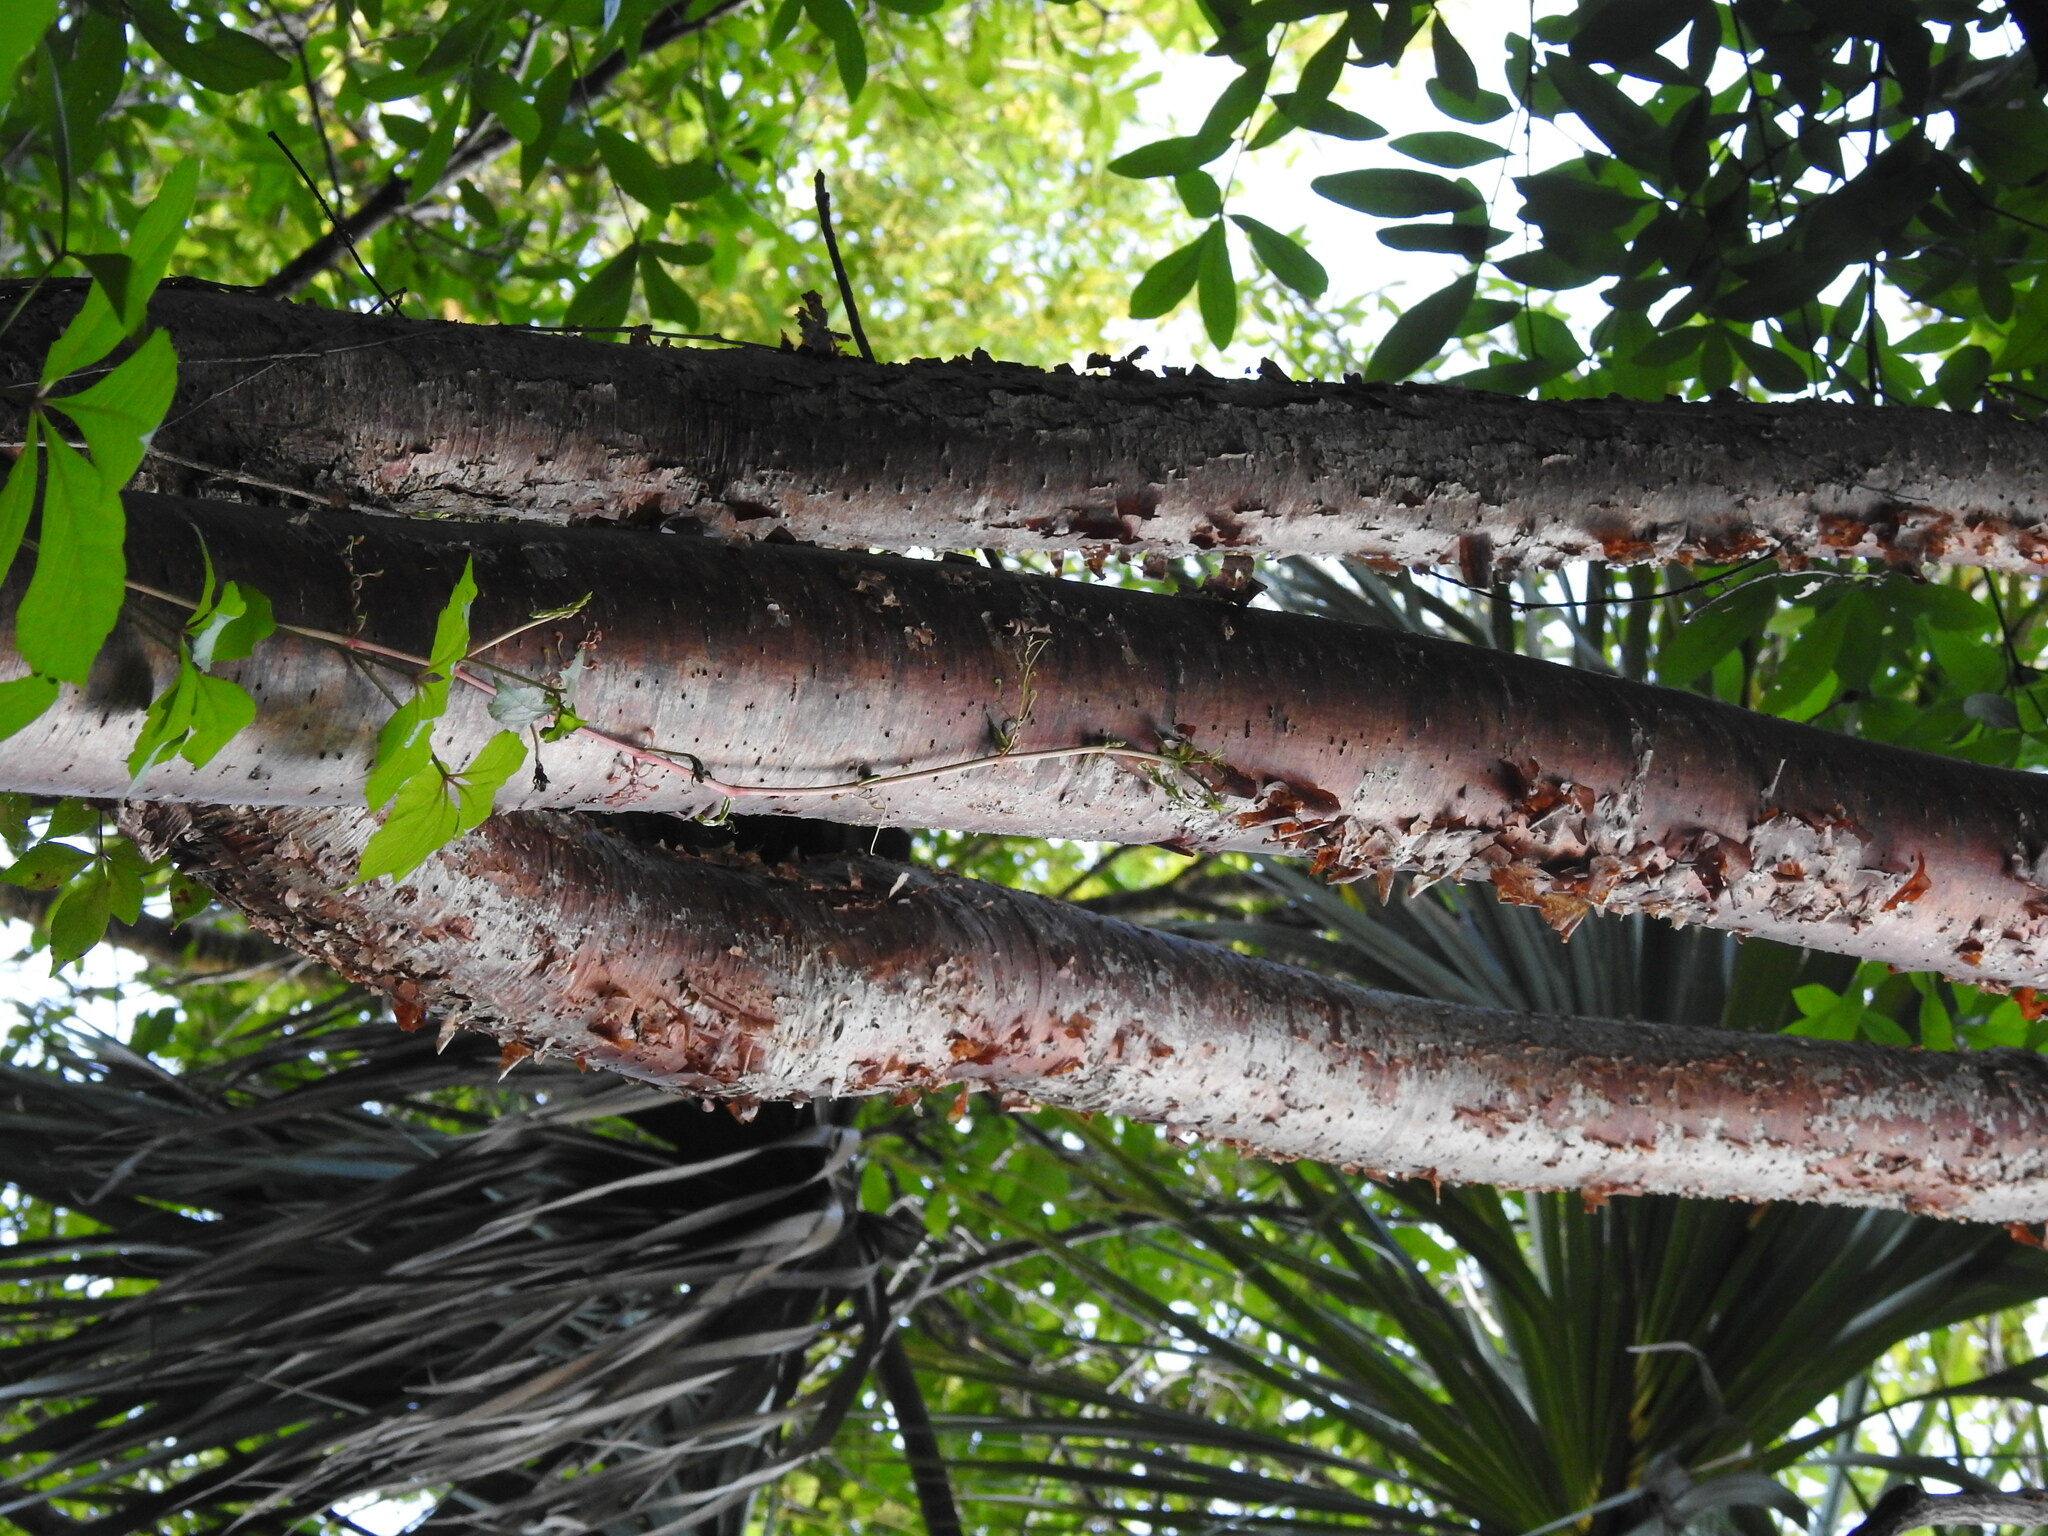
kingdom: Plantae
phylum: Tracheophyta
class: Magnoliopsida
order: Sapindales
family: Burseraceae
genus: Bursera
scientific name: Bursera simaruba
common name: Turpentine tree
